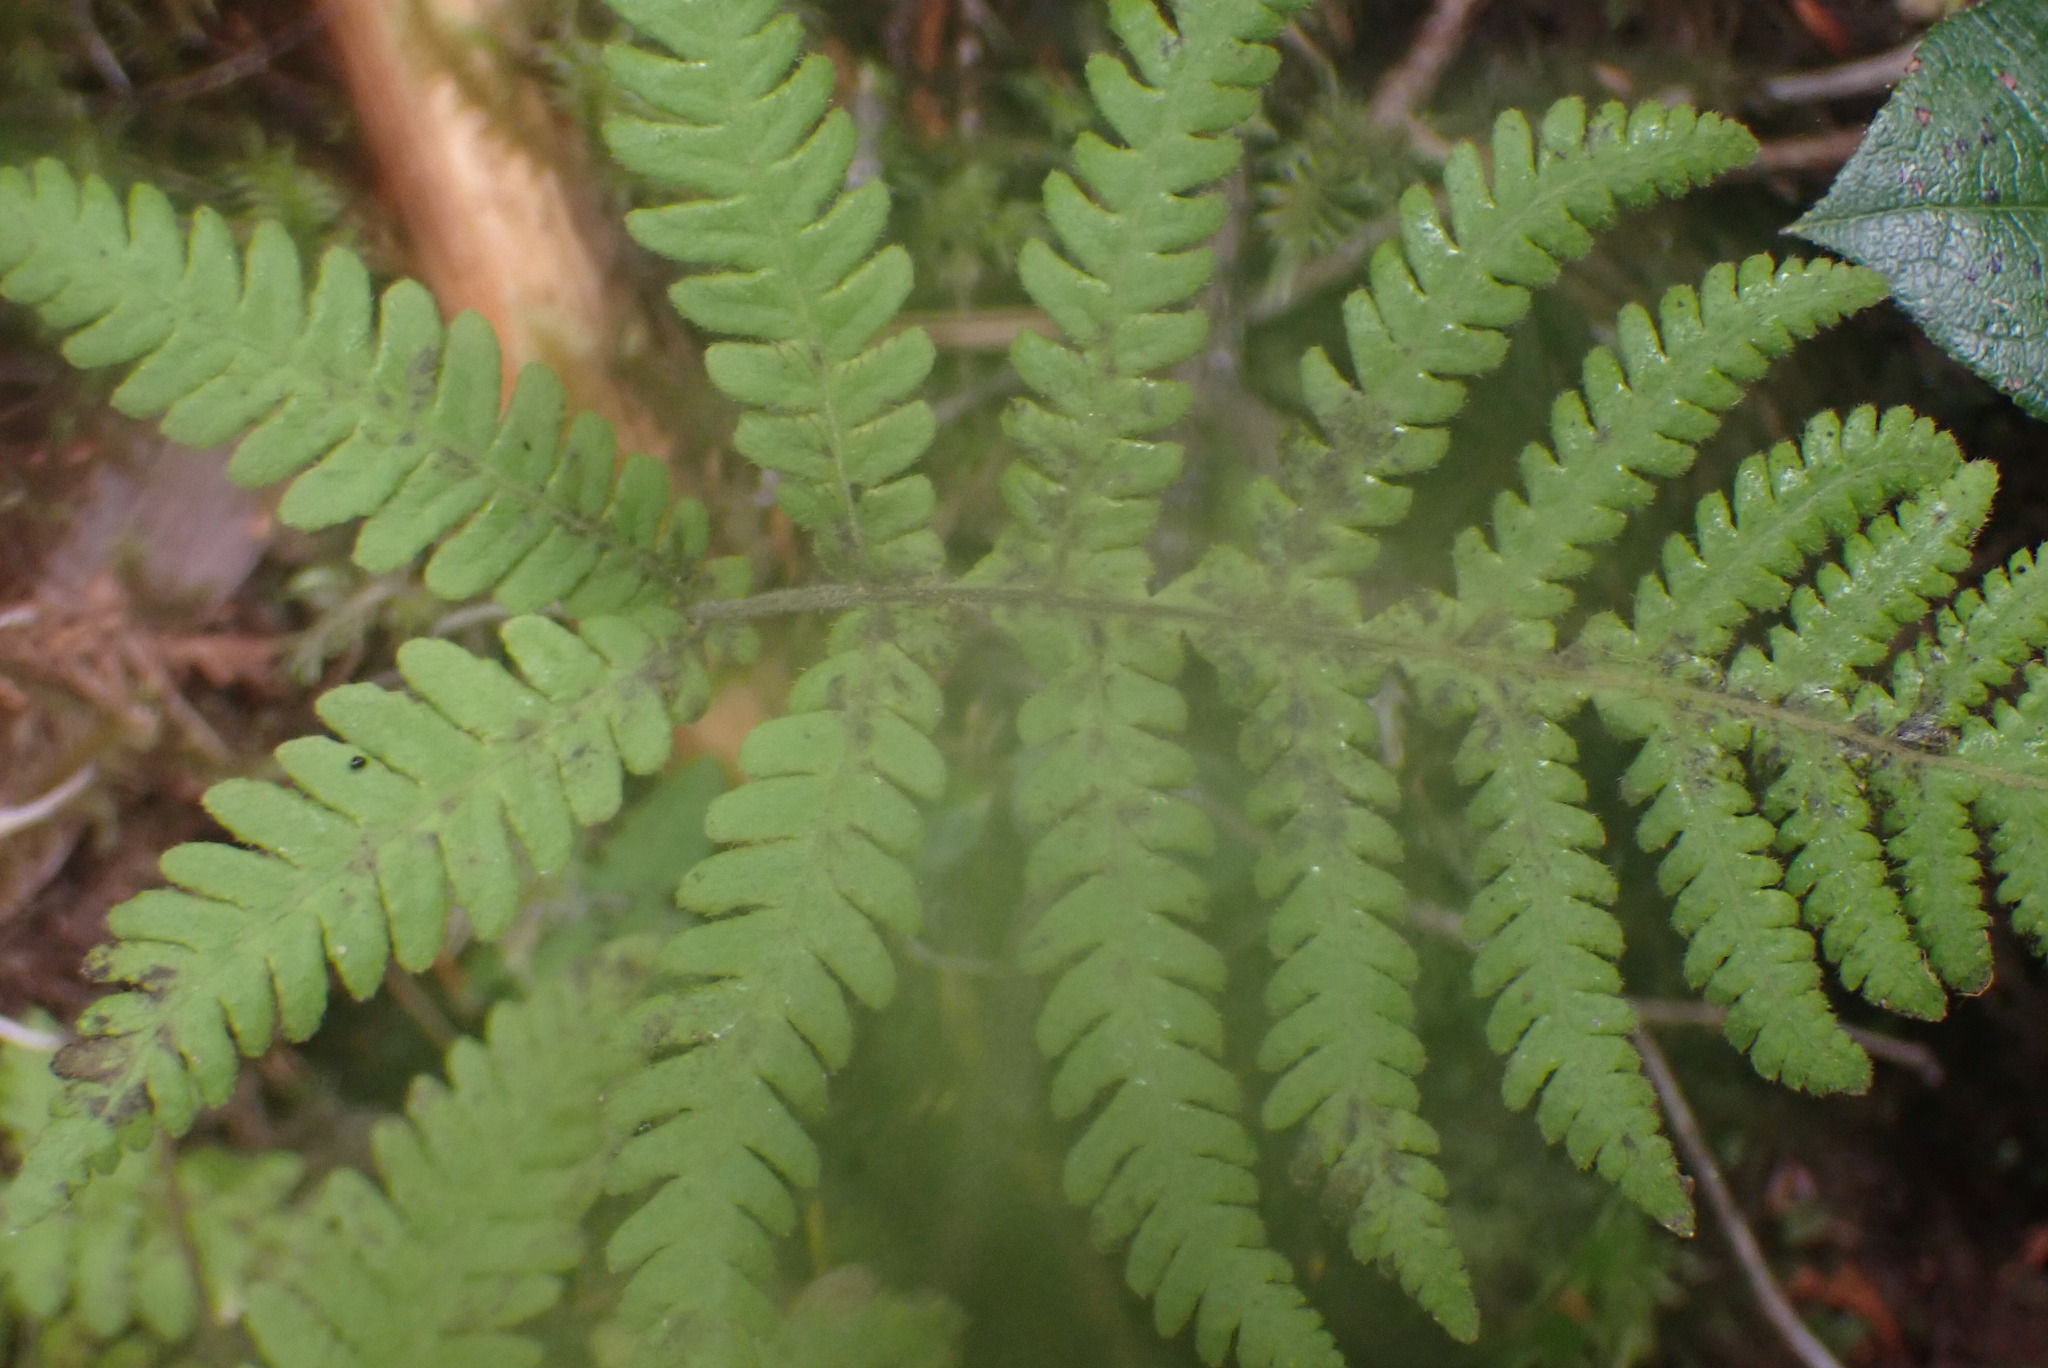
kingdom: Plantae
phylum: Tracheophyta
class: Polypodiopsida
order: Polypodiales
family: Thelypteridaceae
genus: Phegopteris
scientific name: Phegopteris connectilis
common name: Beech fern
